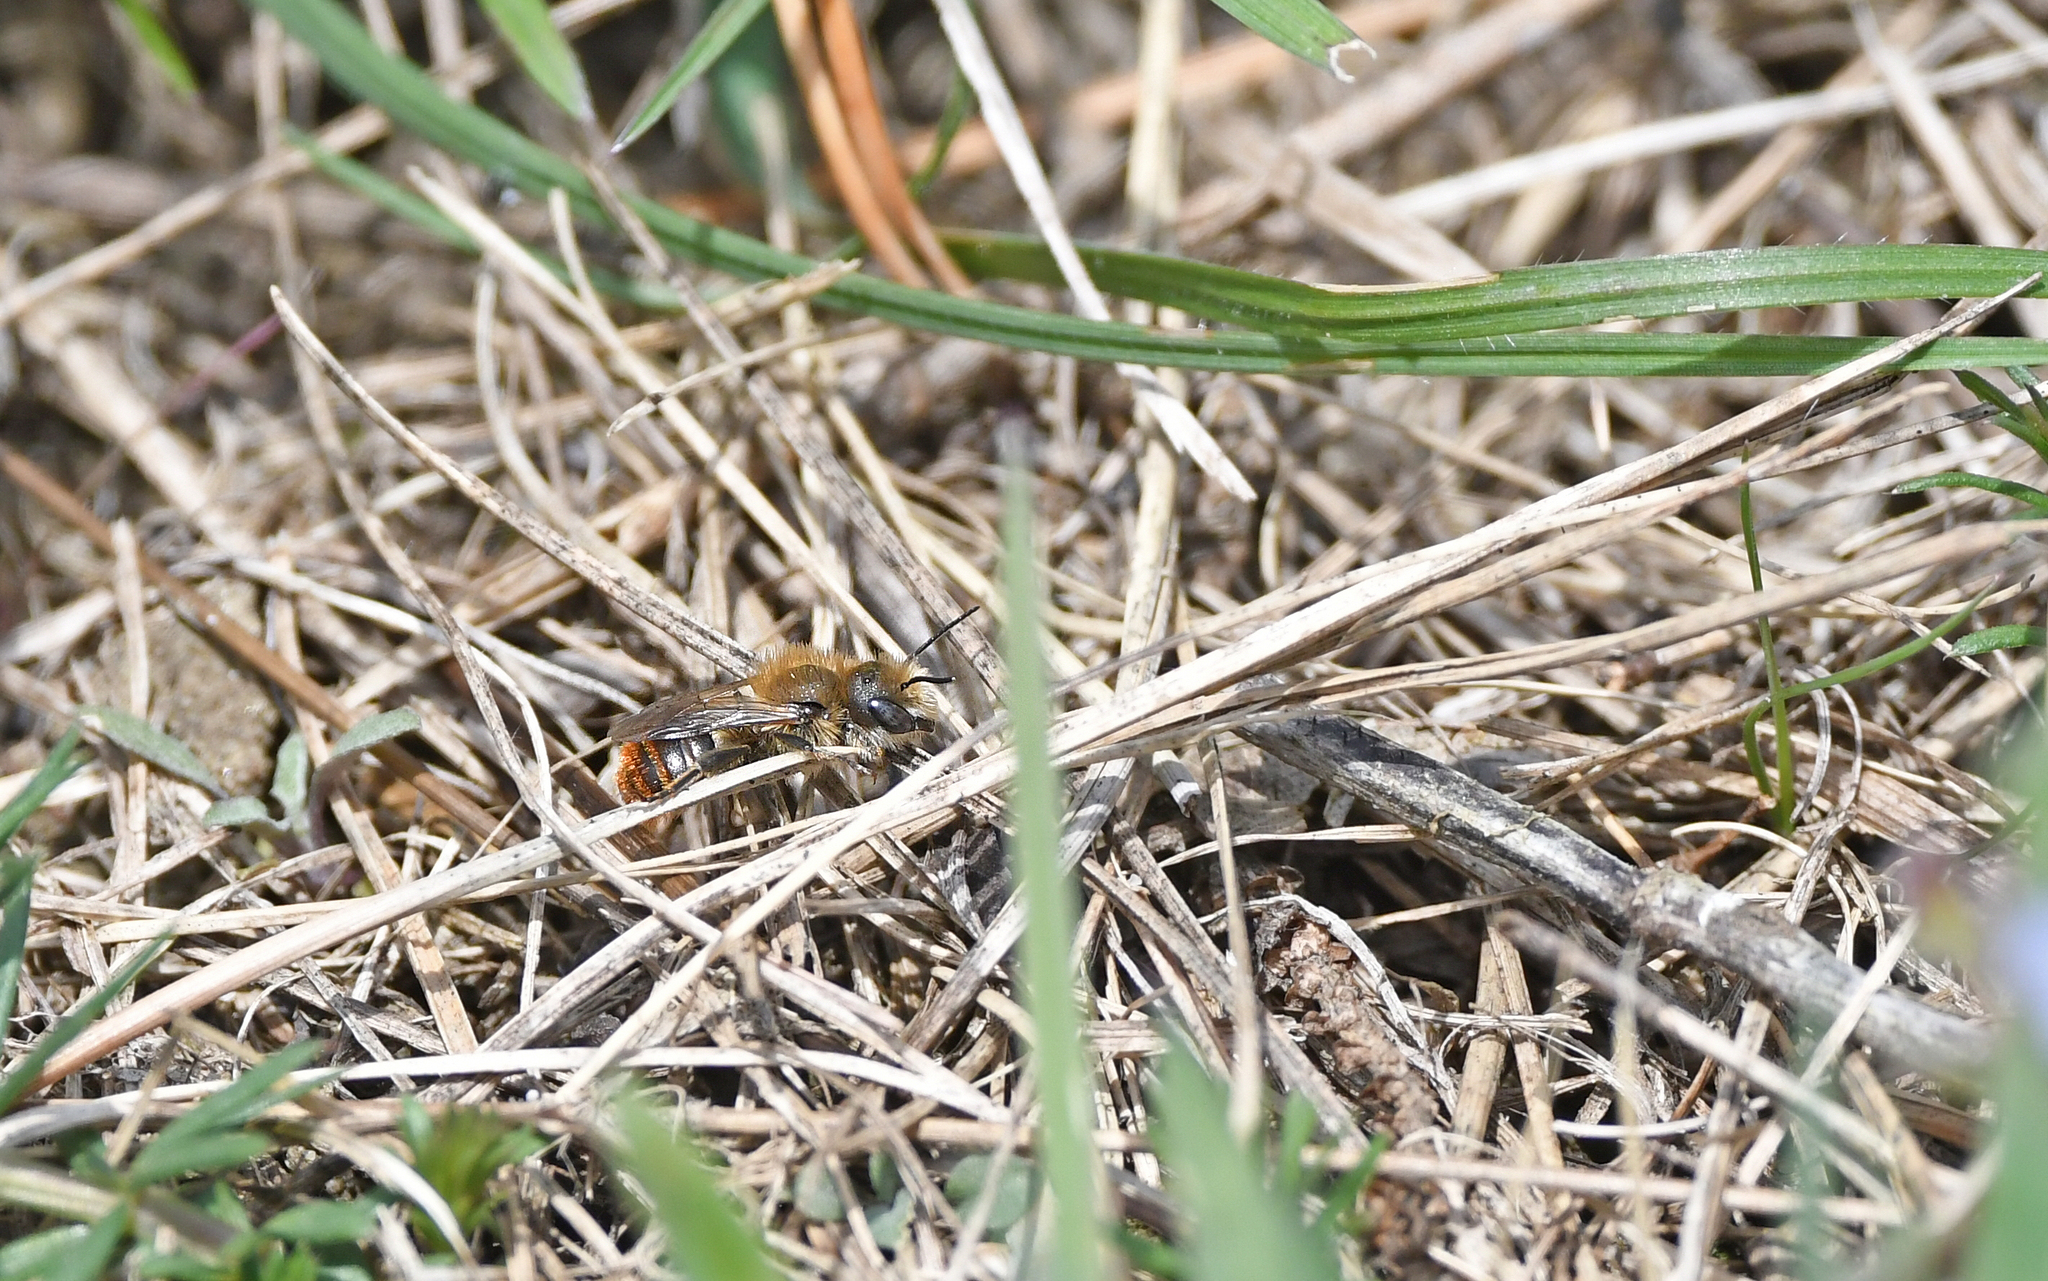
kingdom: Animalia
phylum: Arthropoda
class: Insecta
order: Hymenoptera
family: Megachilidae
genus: Osmia
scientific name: Osmia aurulenta
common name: Gold-fringed mason bee
